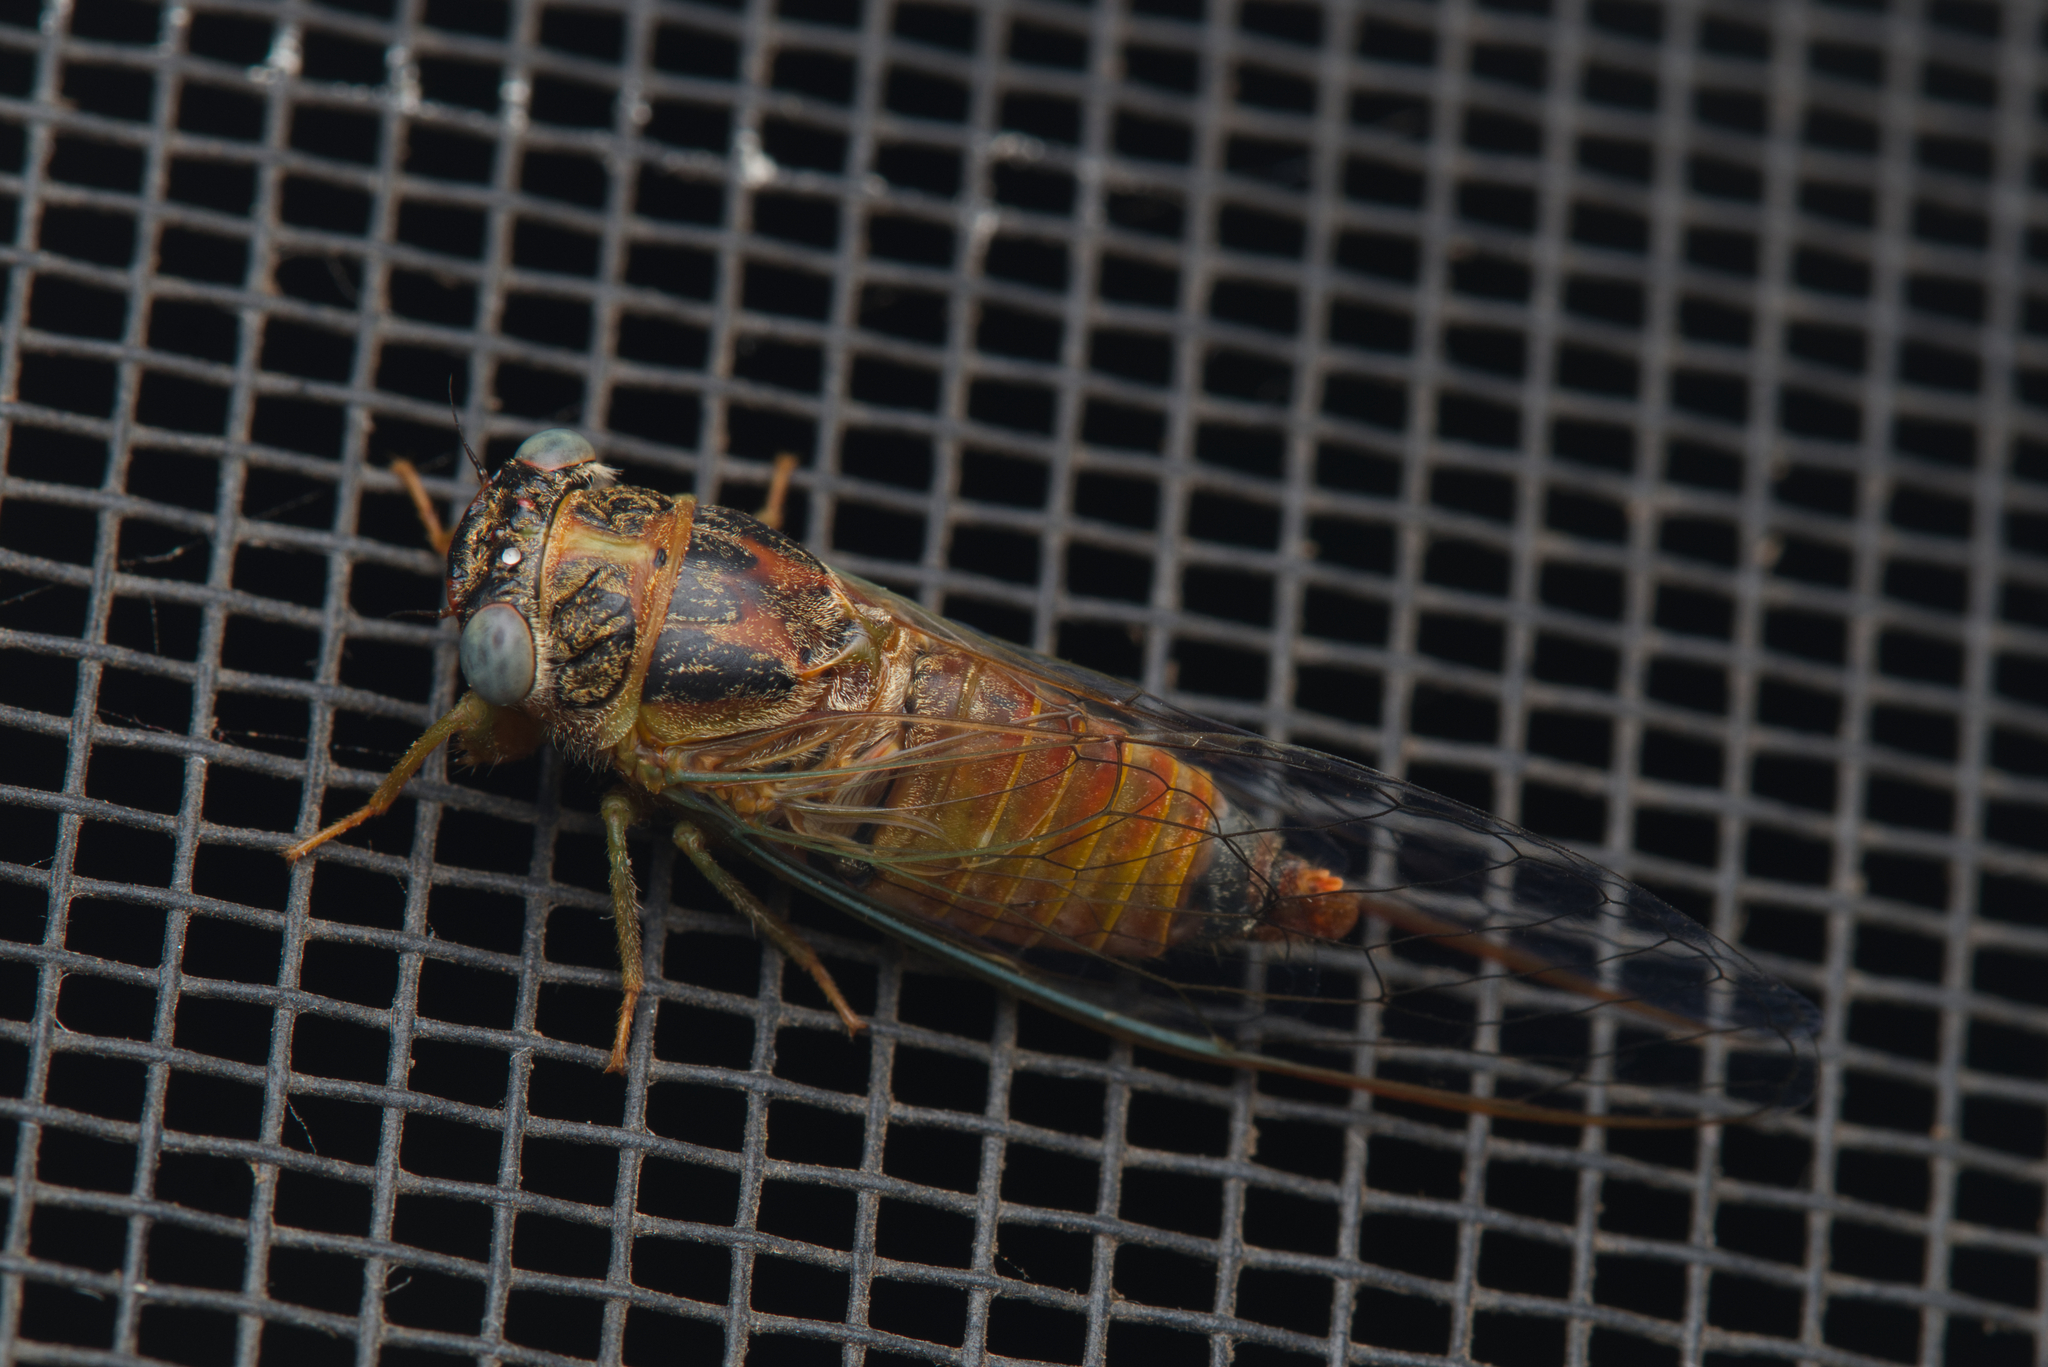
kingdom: Animalia
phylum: Arthropoda
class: Insecta
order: Hemiptera
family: Cicadidae
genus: Palapsalta
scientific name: Palapsalta eyrei
